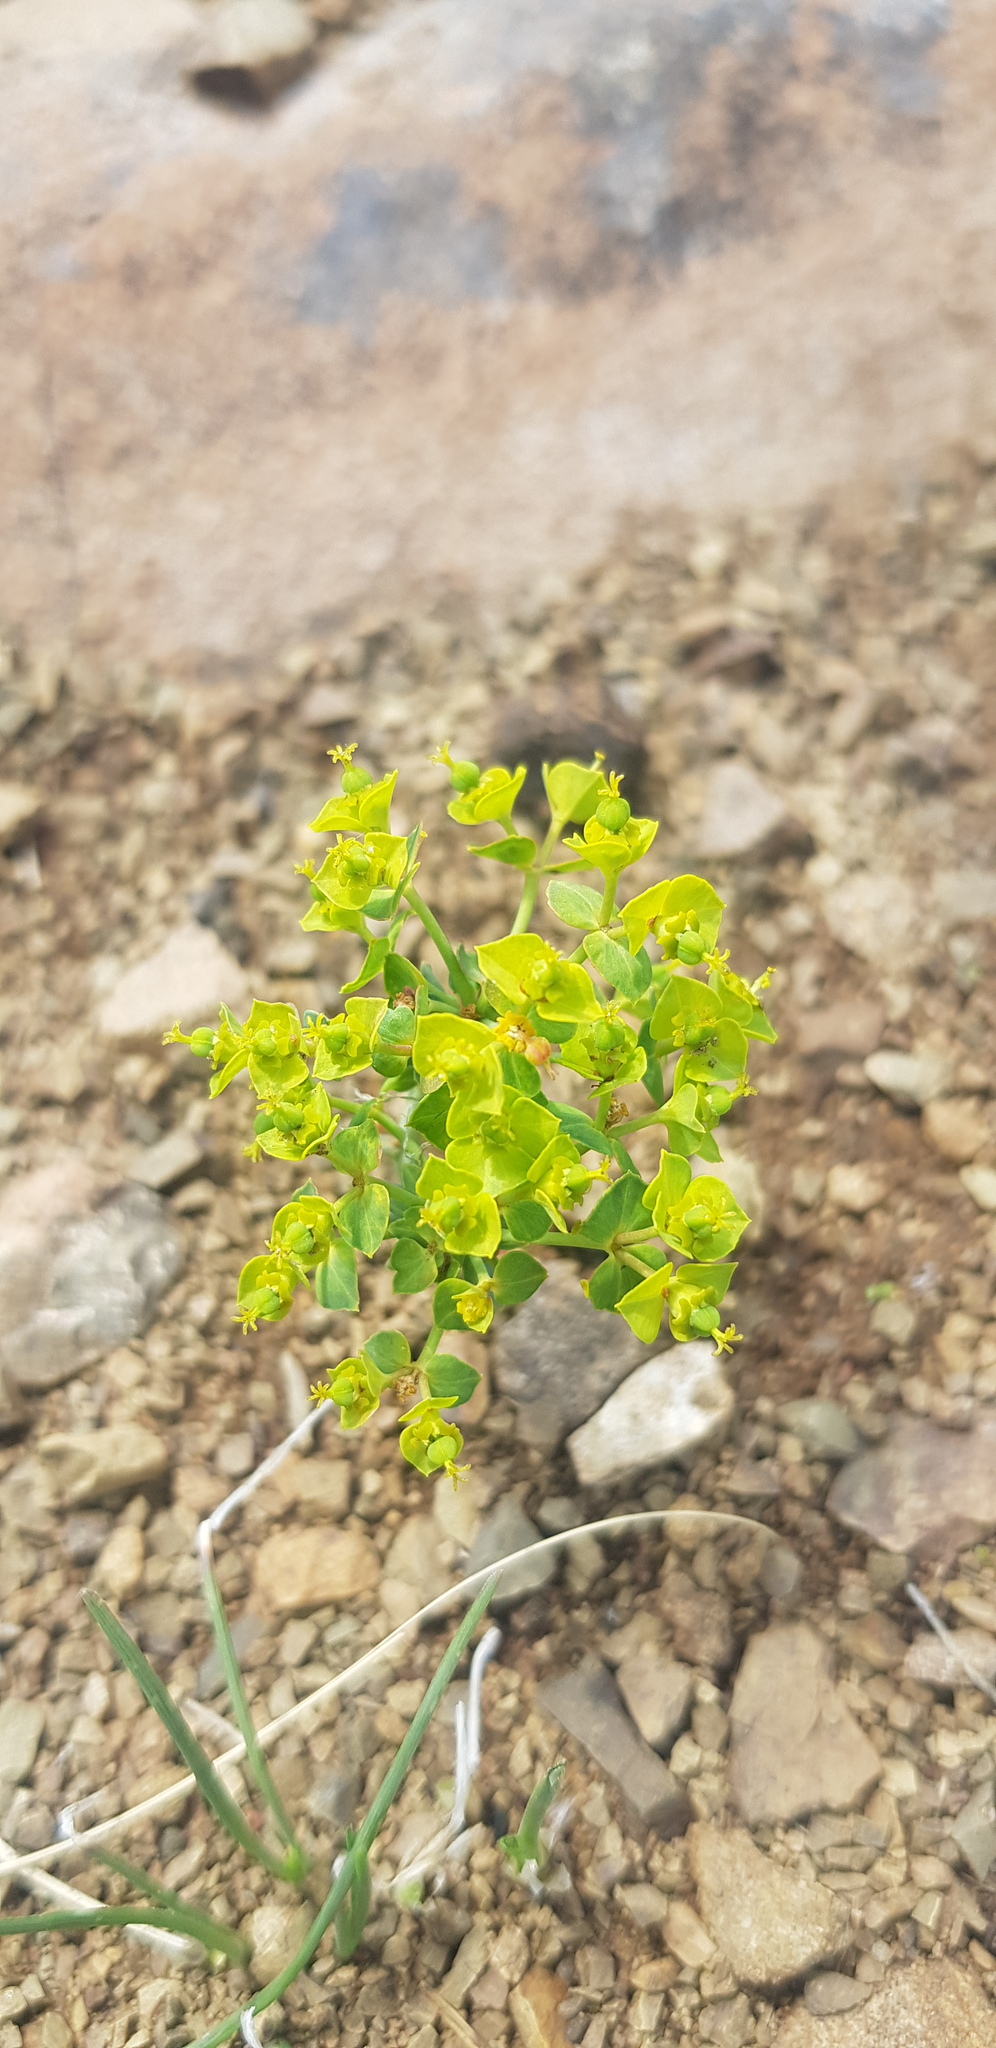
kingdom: Plantae
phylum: Tracheophyta
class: Magnoliopsida
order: Malpighiales
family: Euphorbiaceae
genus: Euphorbia
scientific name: Euphorbia virgata
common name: Leafy spurge
